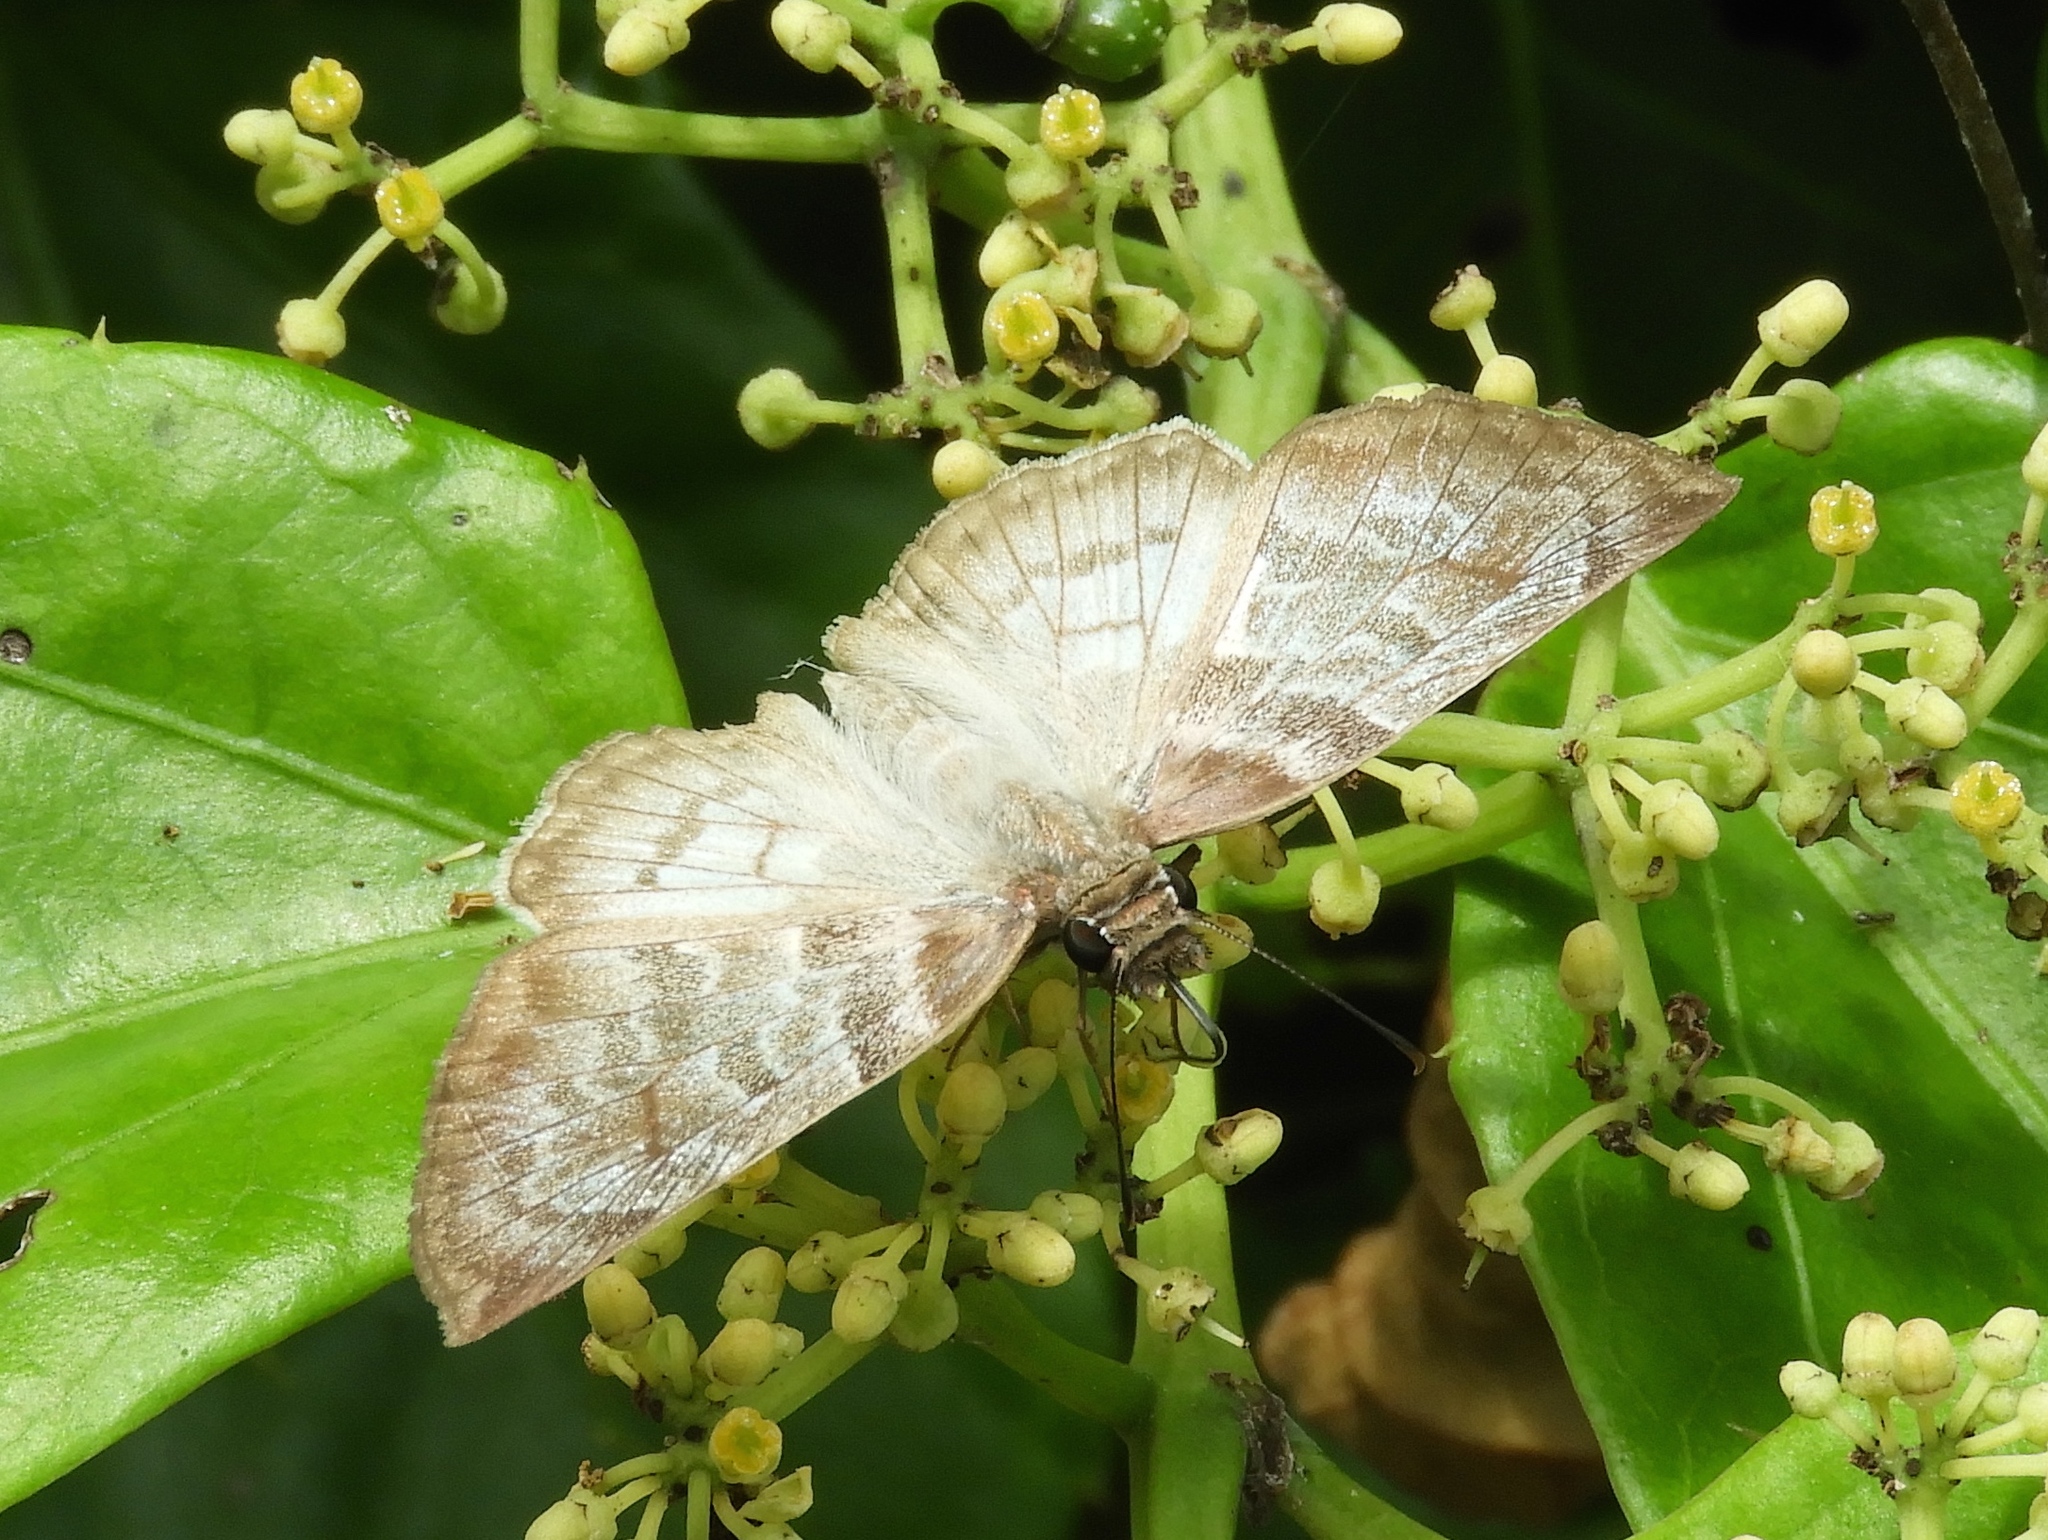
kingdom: Animalia
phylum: Arthropoda
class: Insecta
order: Lepidoptera
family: Hesperiidae
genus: Mylon
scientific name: Mylon pelopidas
